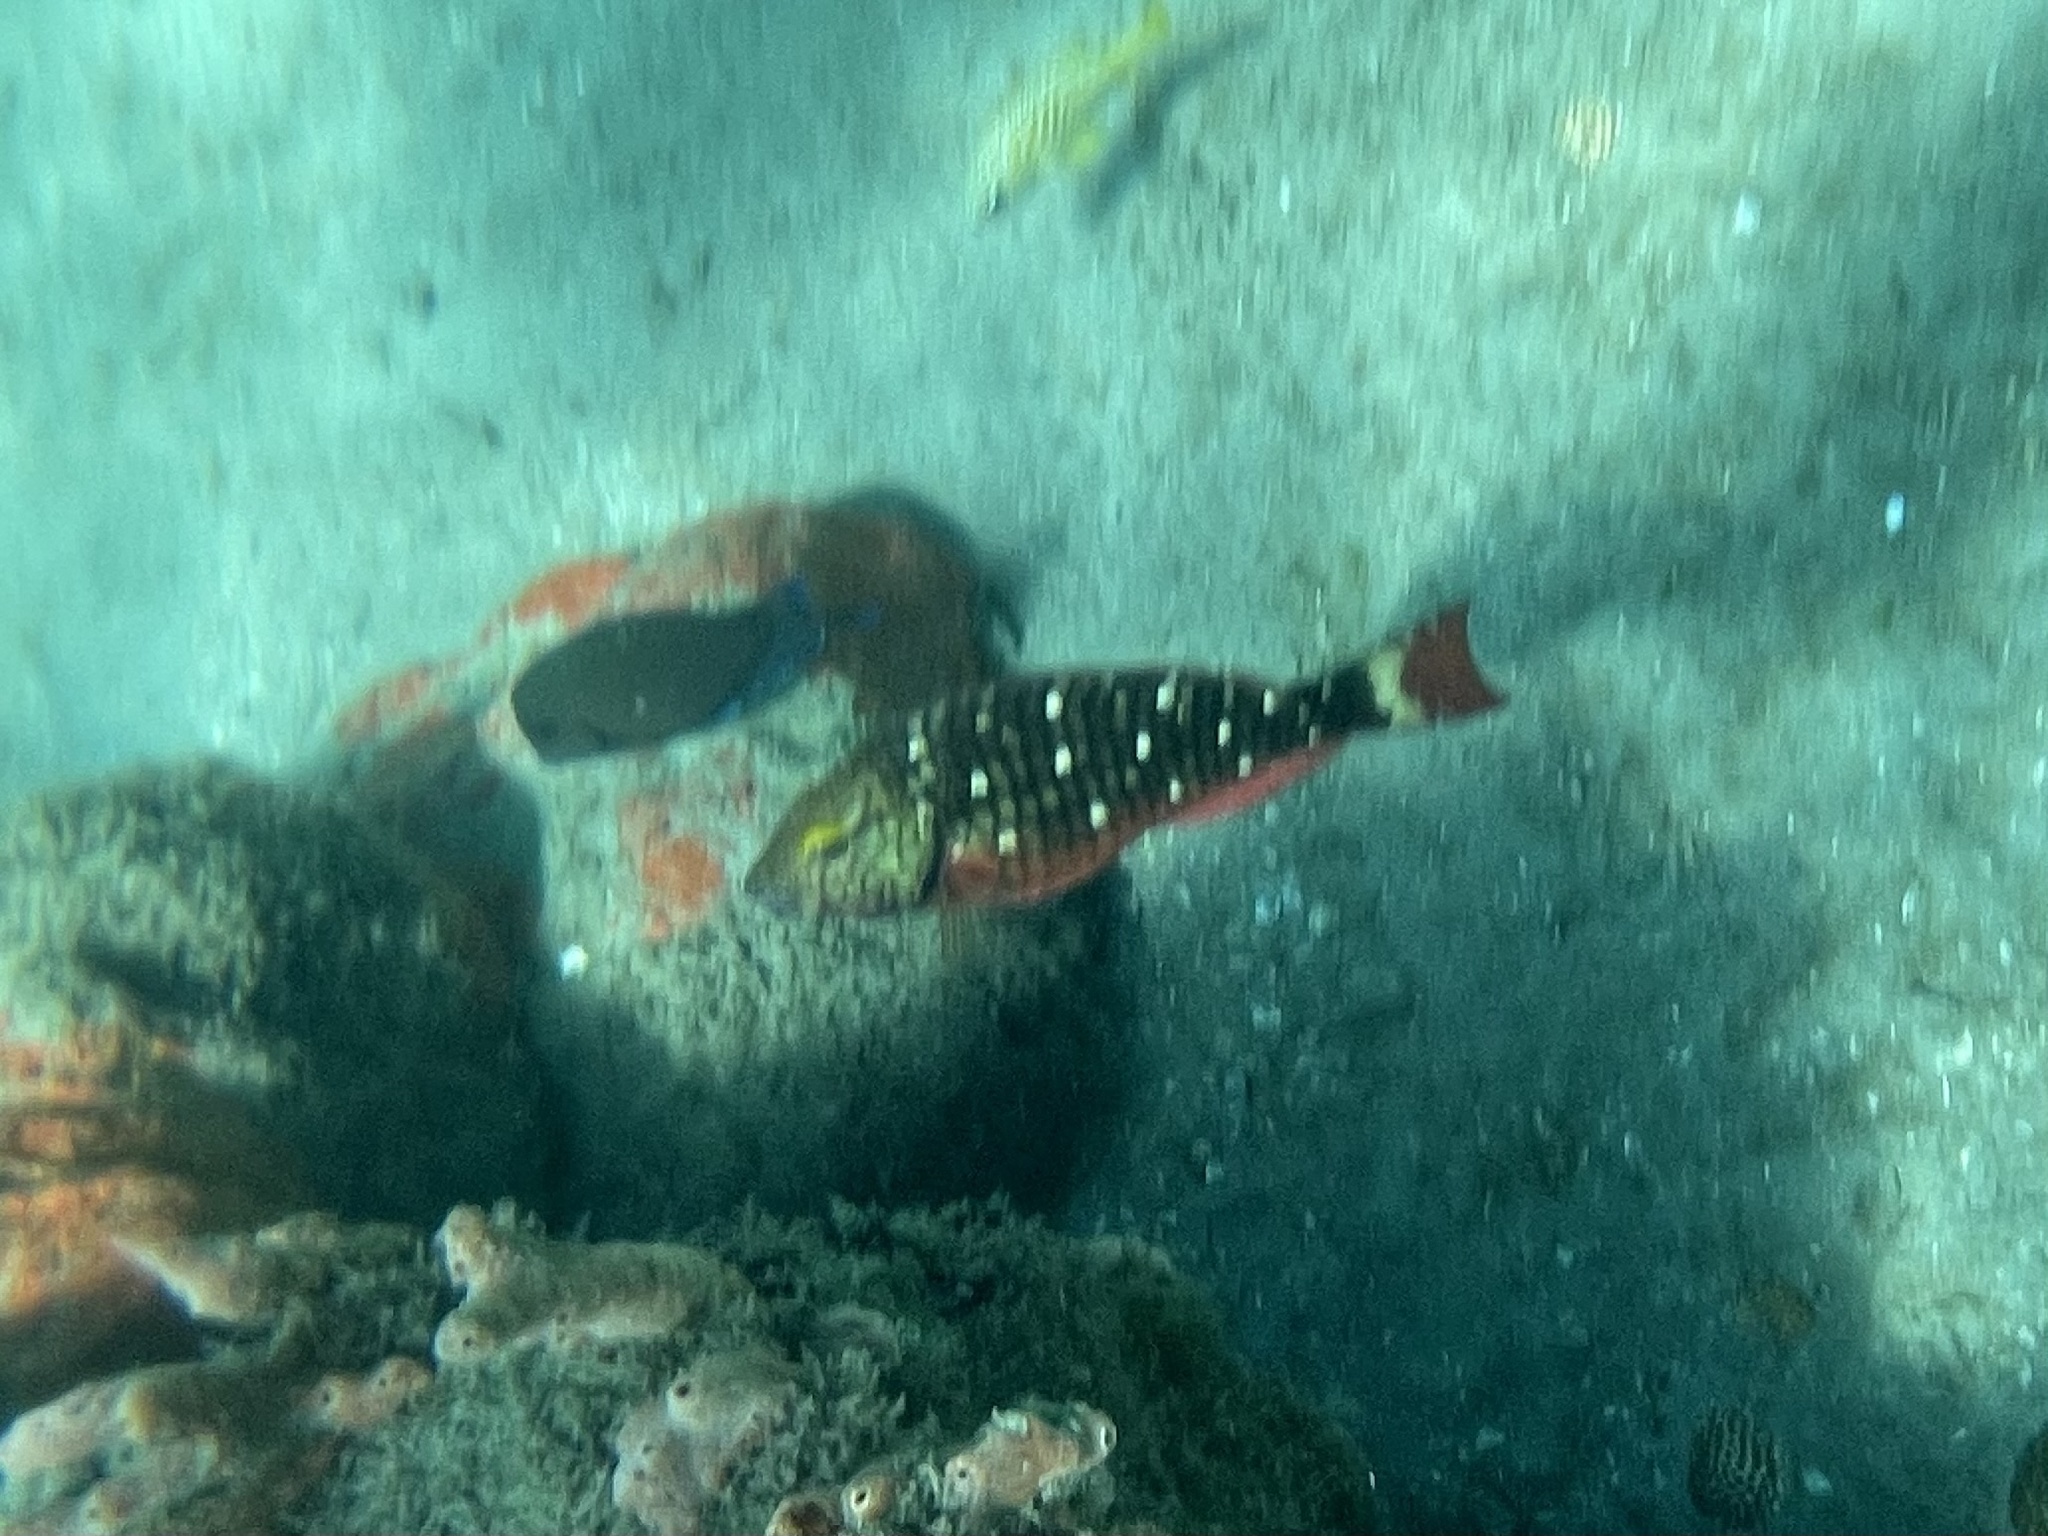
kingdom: Animalia
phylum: Chordata
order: Perciformes
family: Scaridae
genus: Sparisoma
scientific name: Sparisoma viride
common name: Stoplight parrotfish
